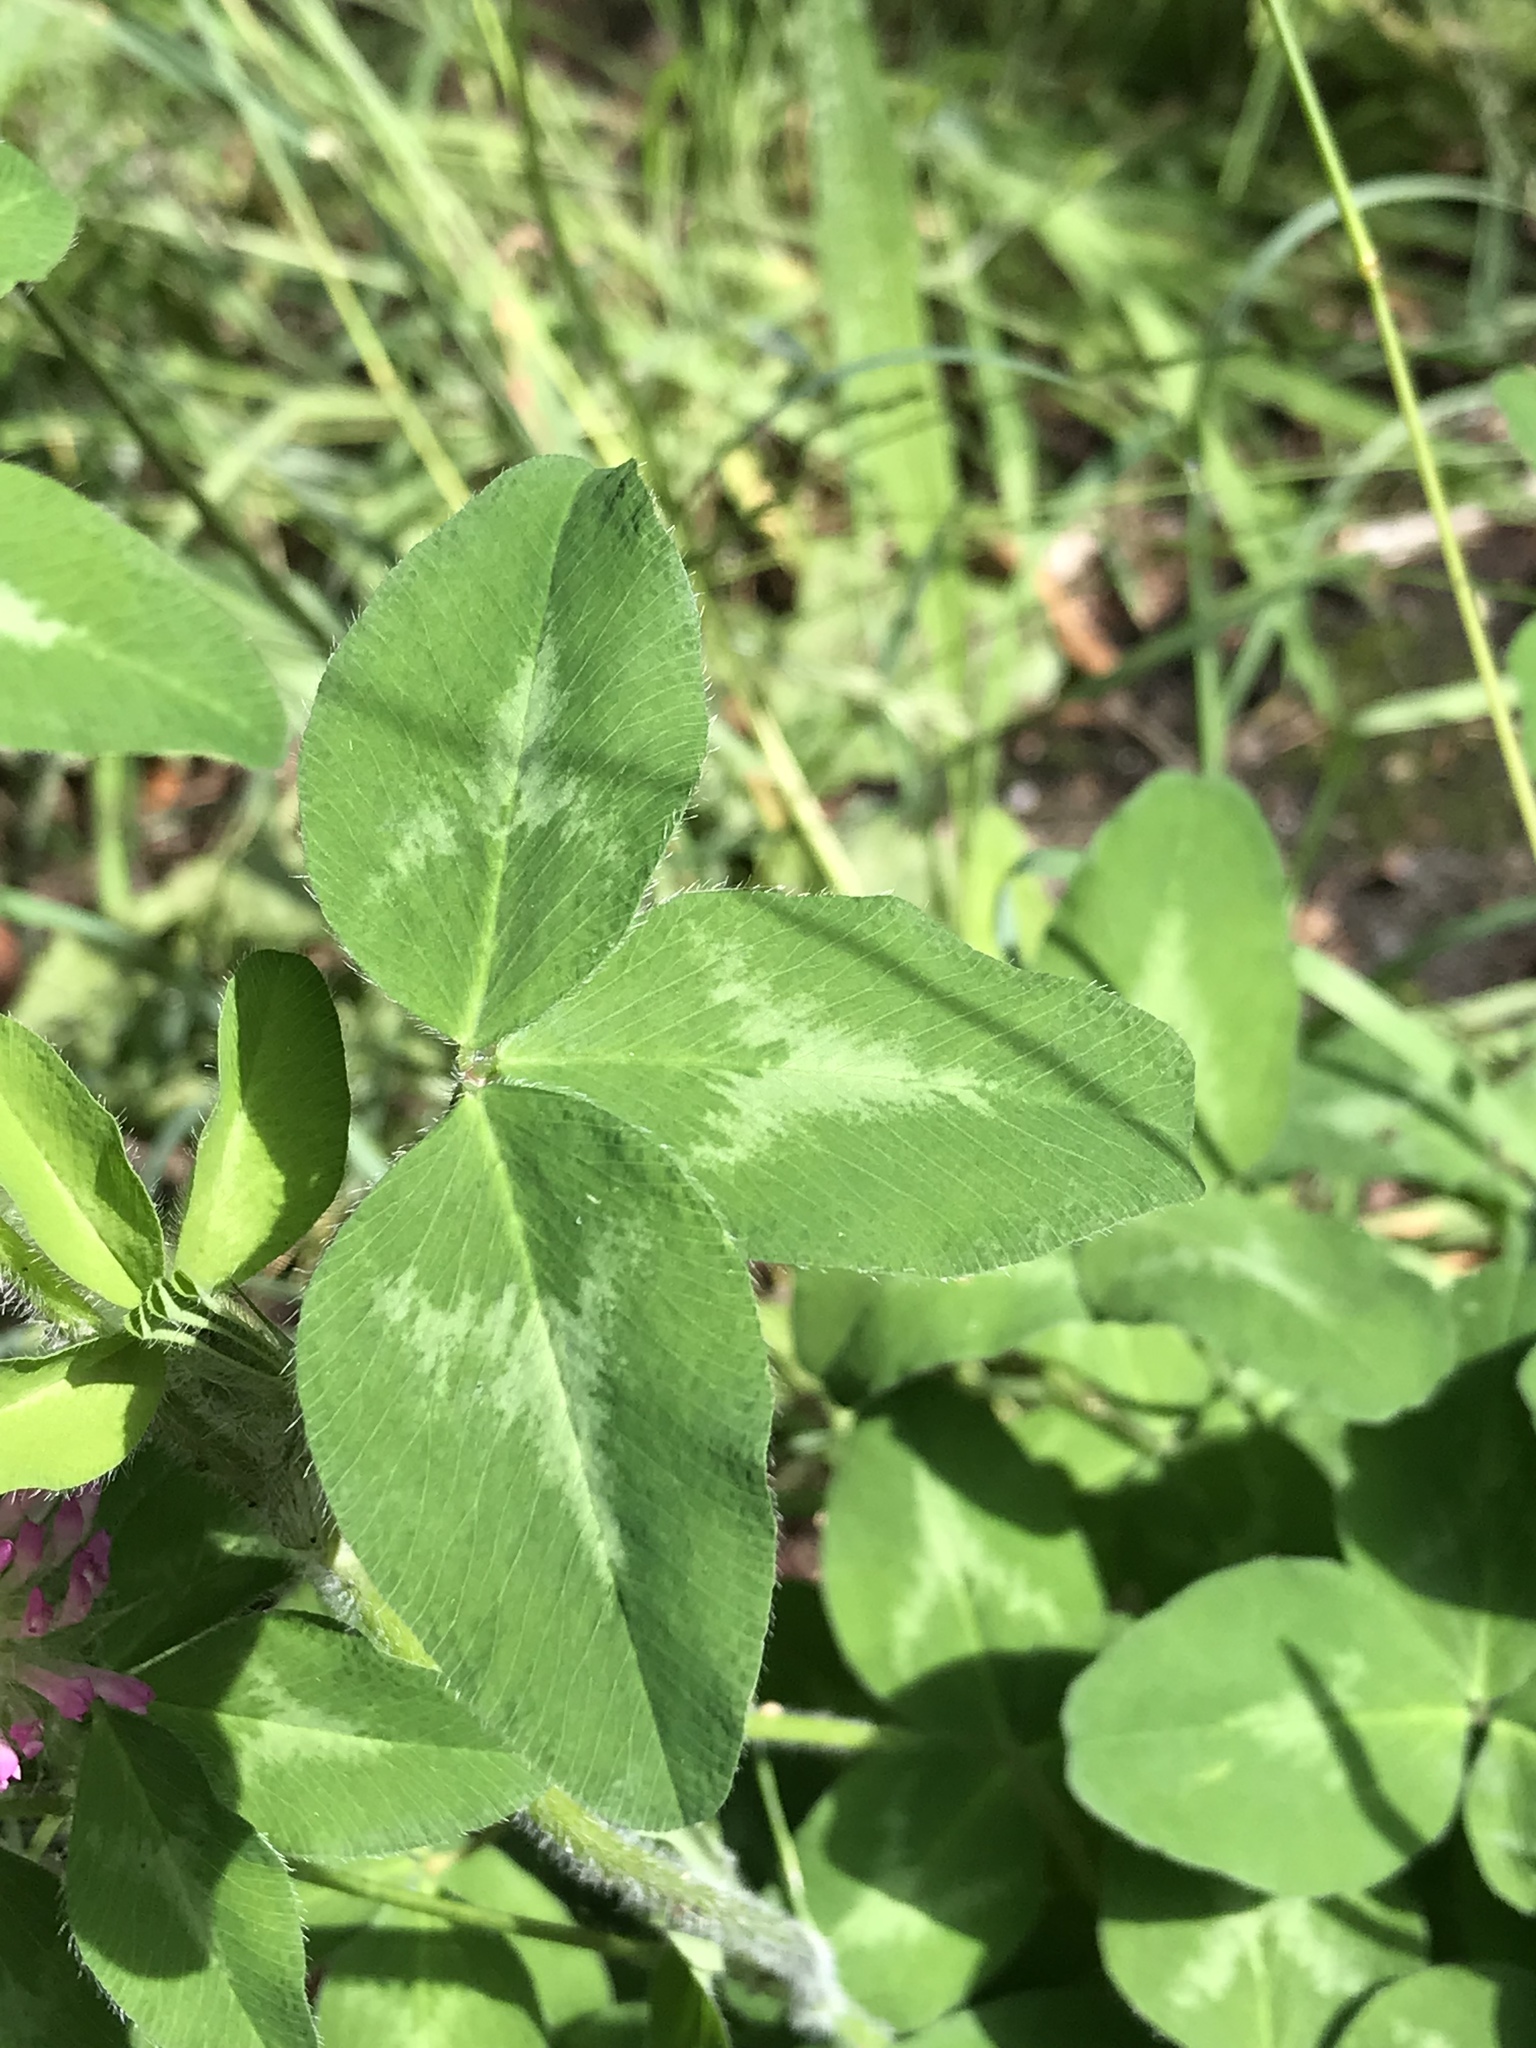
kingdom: Plantae
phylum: Tracheophyta
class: Magnoliopsida
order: Fabales
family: Fabaceae
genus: Trifolium
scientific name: Trifolium pratense
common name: Red clover
